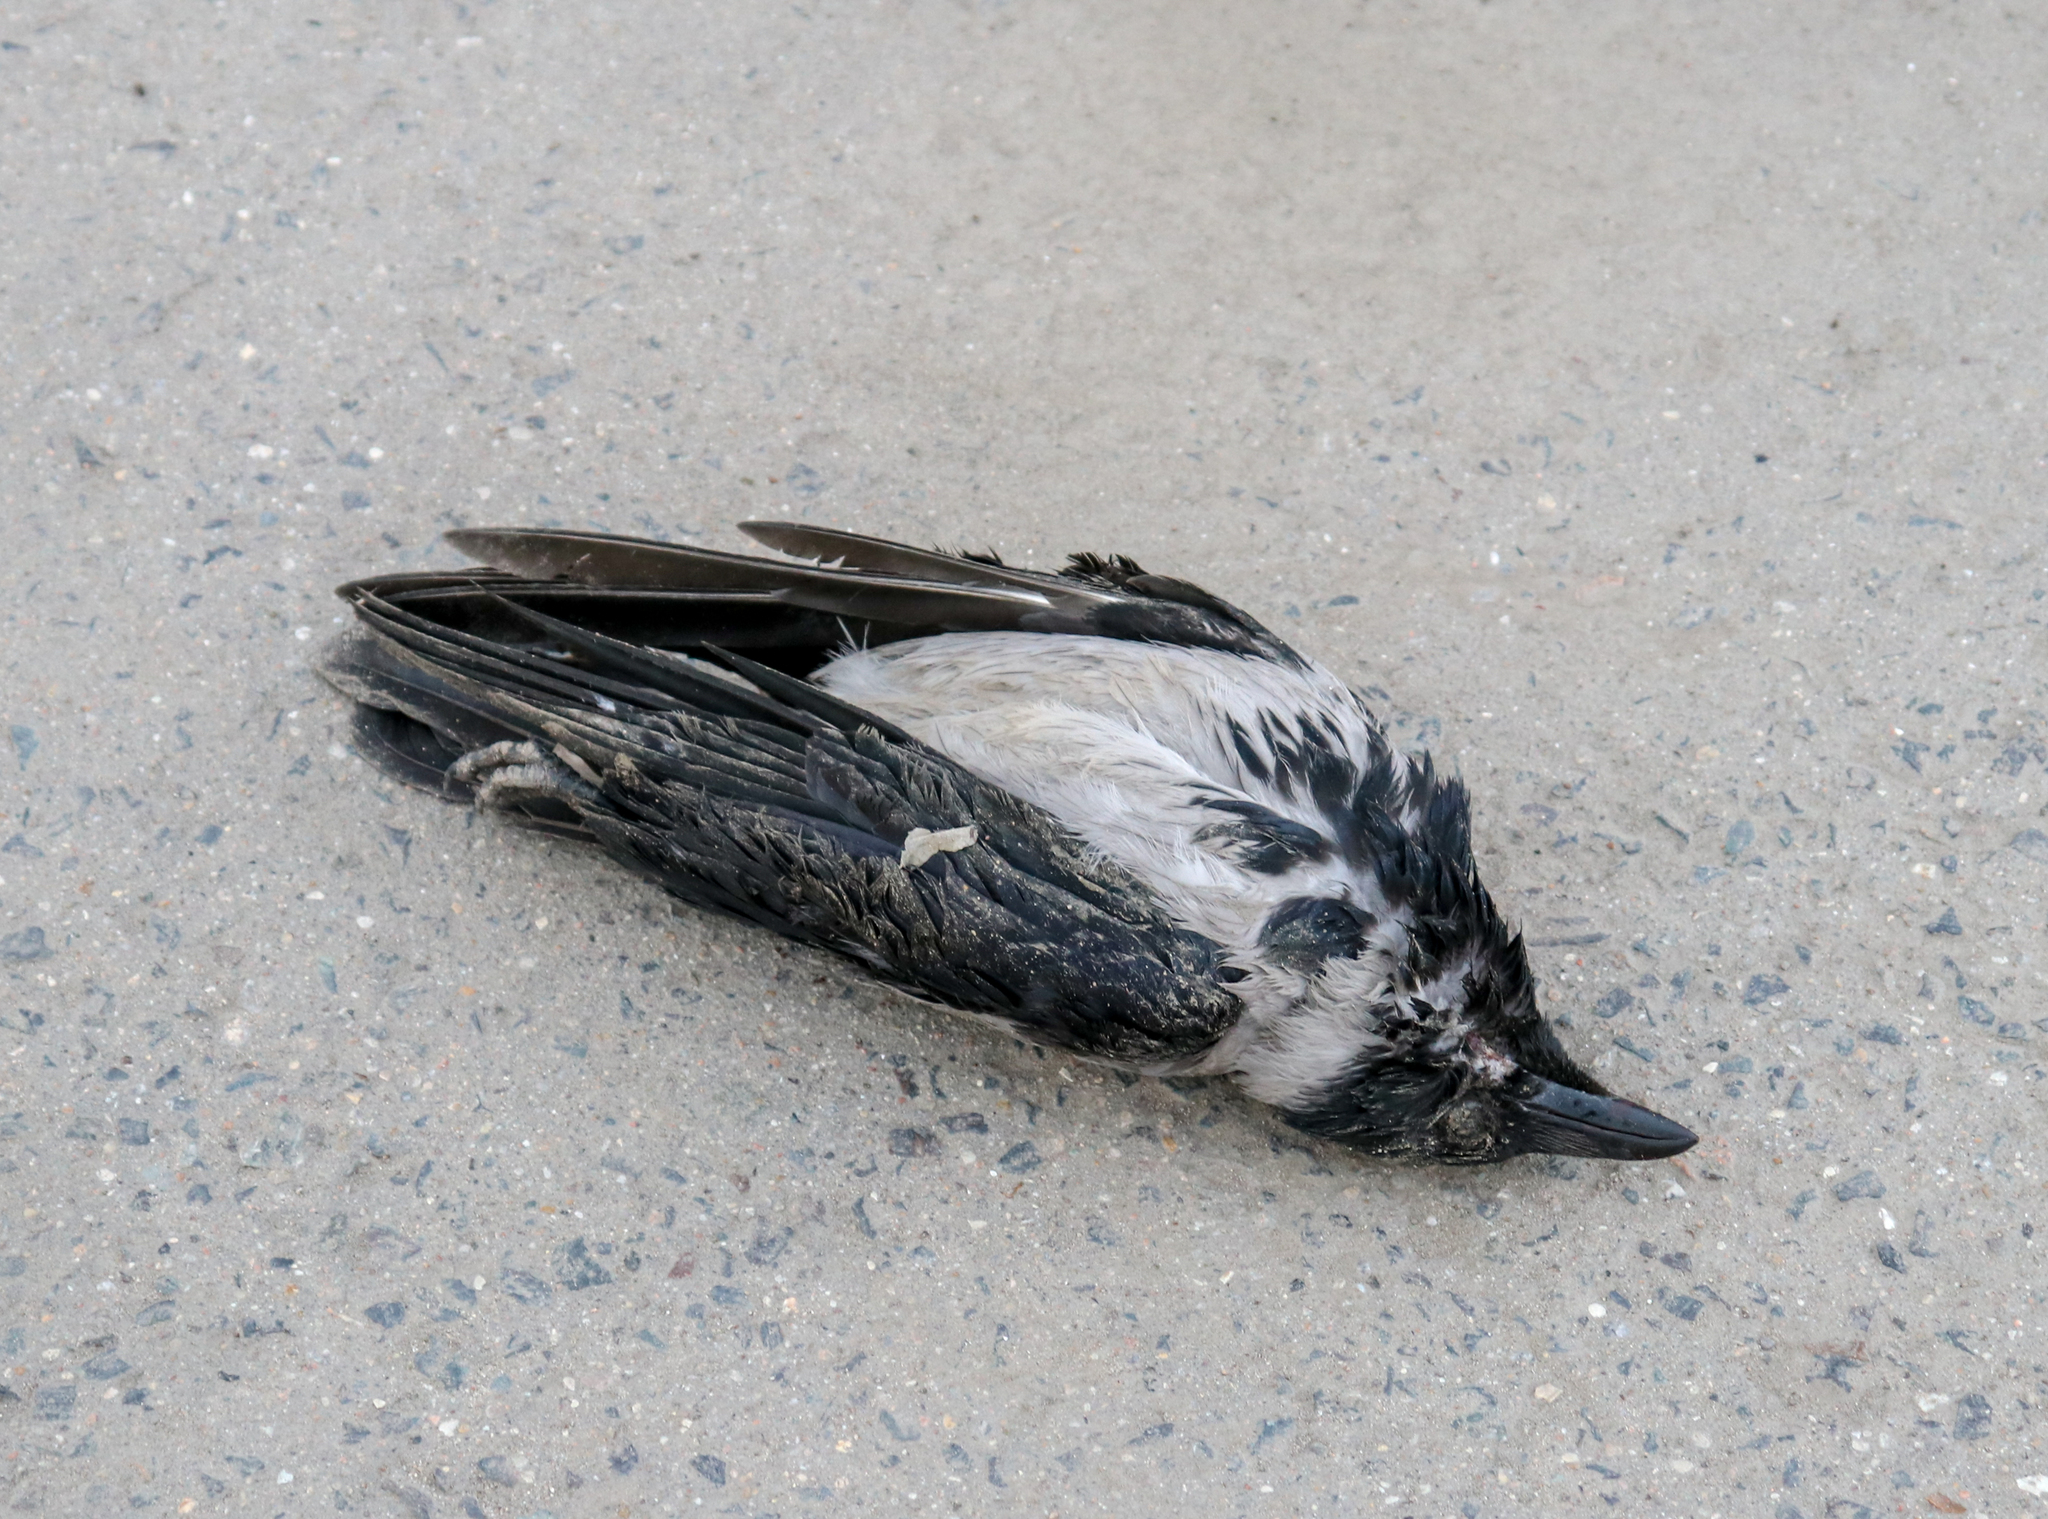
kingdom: Animalia
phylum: Chordata
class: Aves
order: Passeriformes
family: Corvidae
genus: Corvus
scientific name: Corvus cornix
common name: Hooded crow
